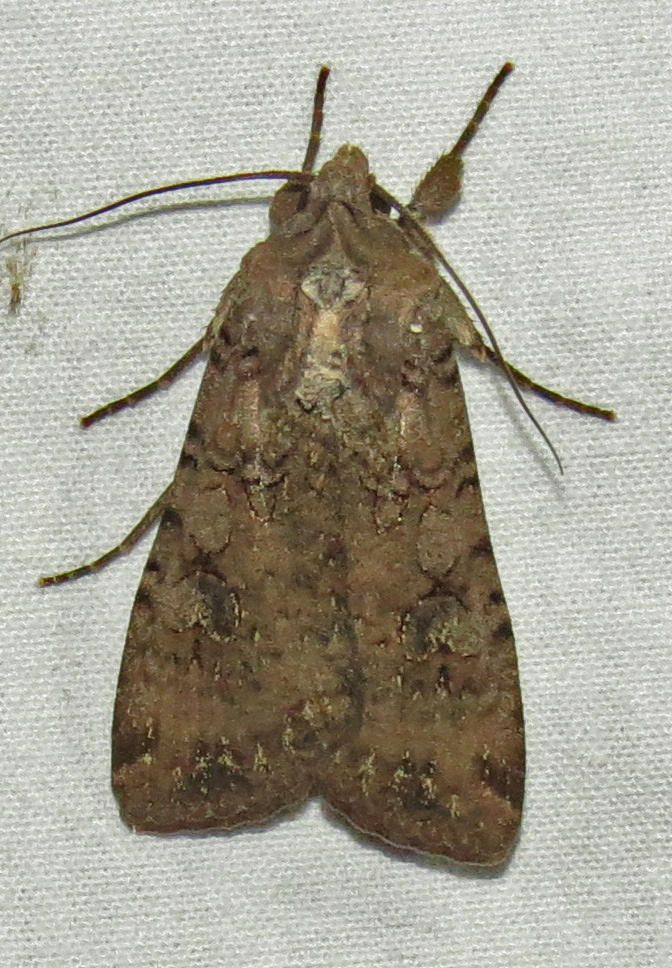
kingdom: Animalia
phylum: Arthropoda
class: Insecta
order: Lepidoptera
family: Noctuidae
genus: Peridroma
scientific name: Peridroma saucia
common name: Pearly underwing
